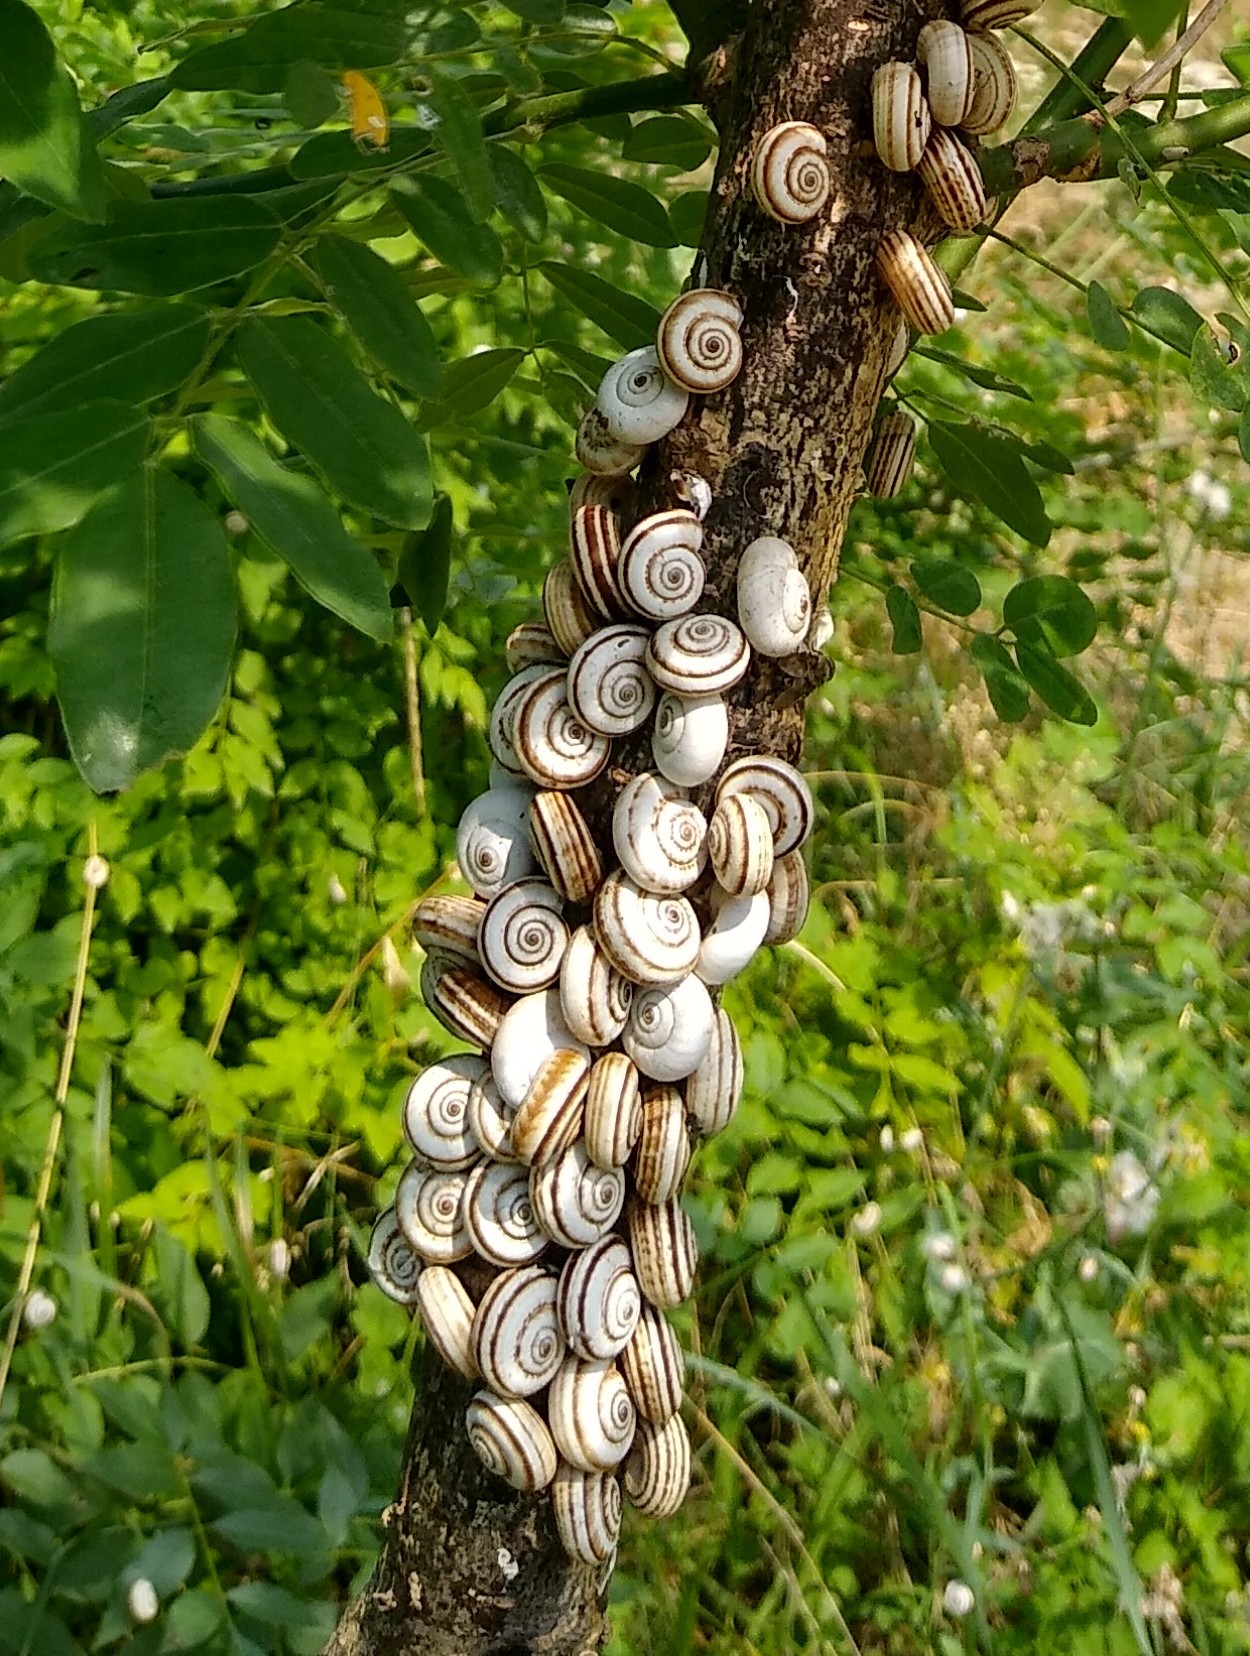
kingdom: Animalia
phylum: Mollusca
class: Gastropoda
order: Stylommatophora
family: Geomitridae
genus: Xeropicta
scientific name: Xeropicta derbentina
